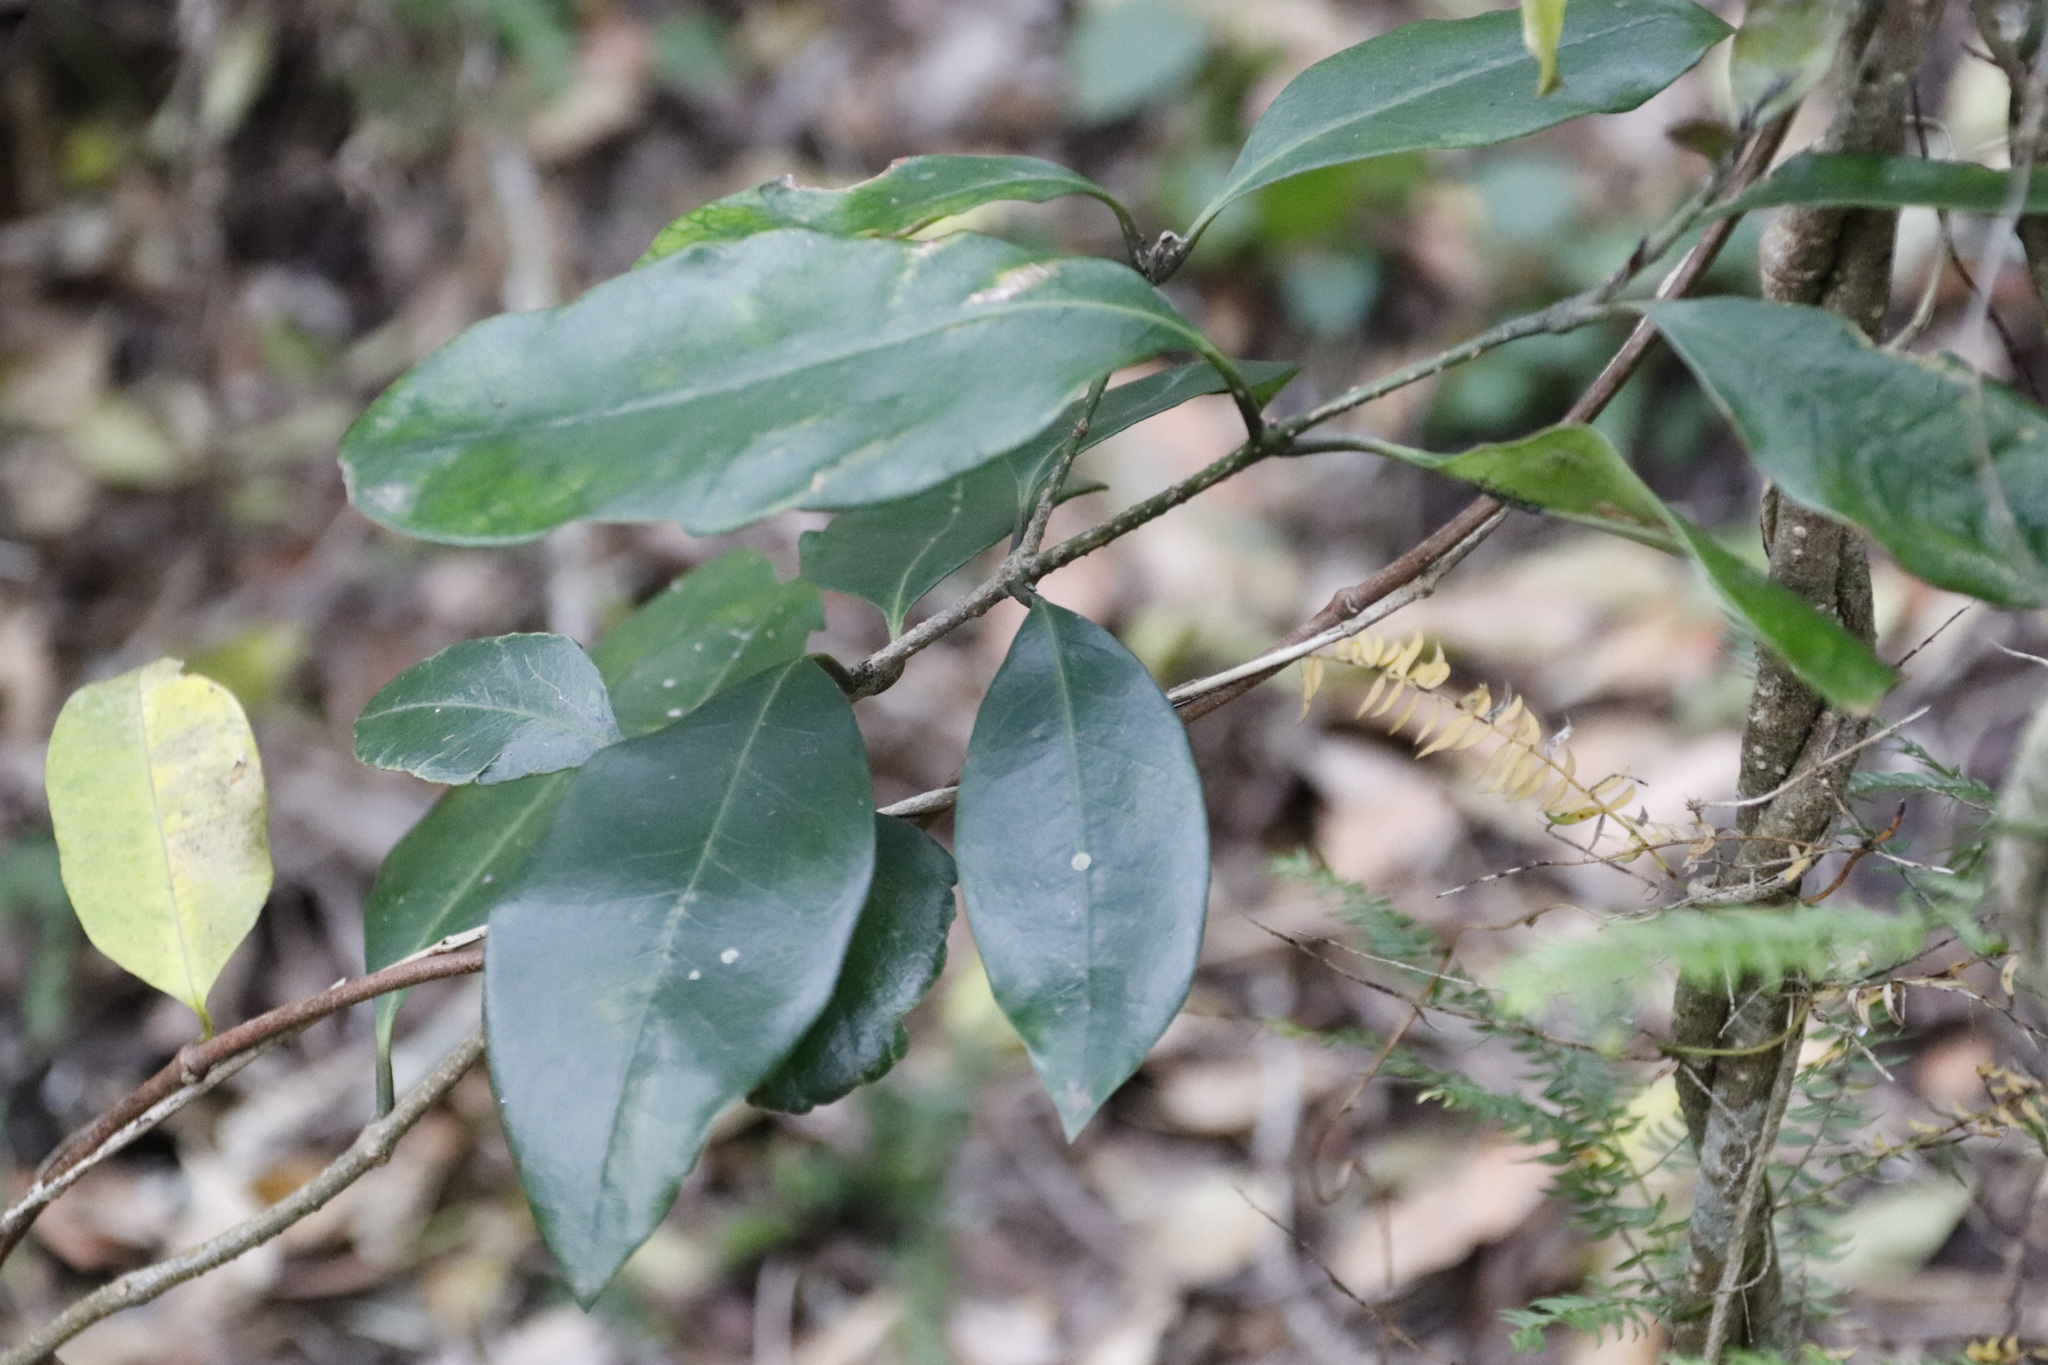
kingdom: Plantae
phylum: Tracheophyta
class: Magnoliopsida
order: Gentianales
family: Apocynaceae
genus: Secamone
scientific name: Secamone alpini
